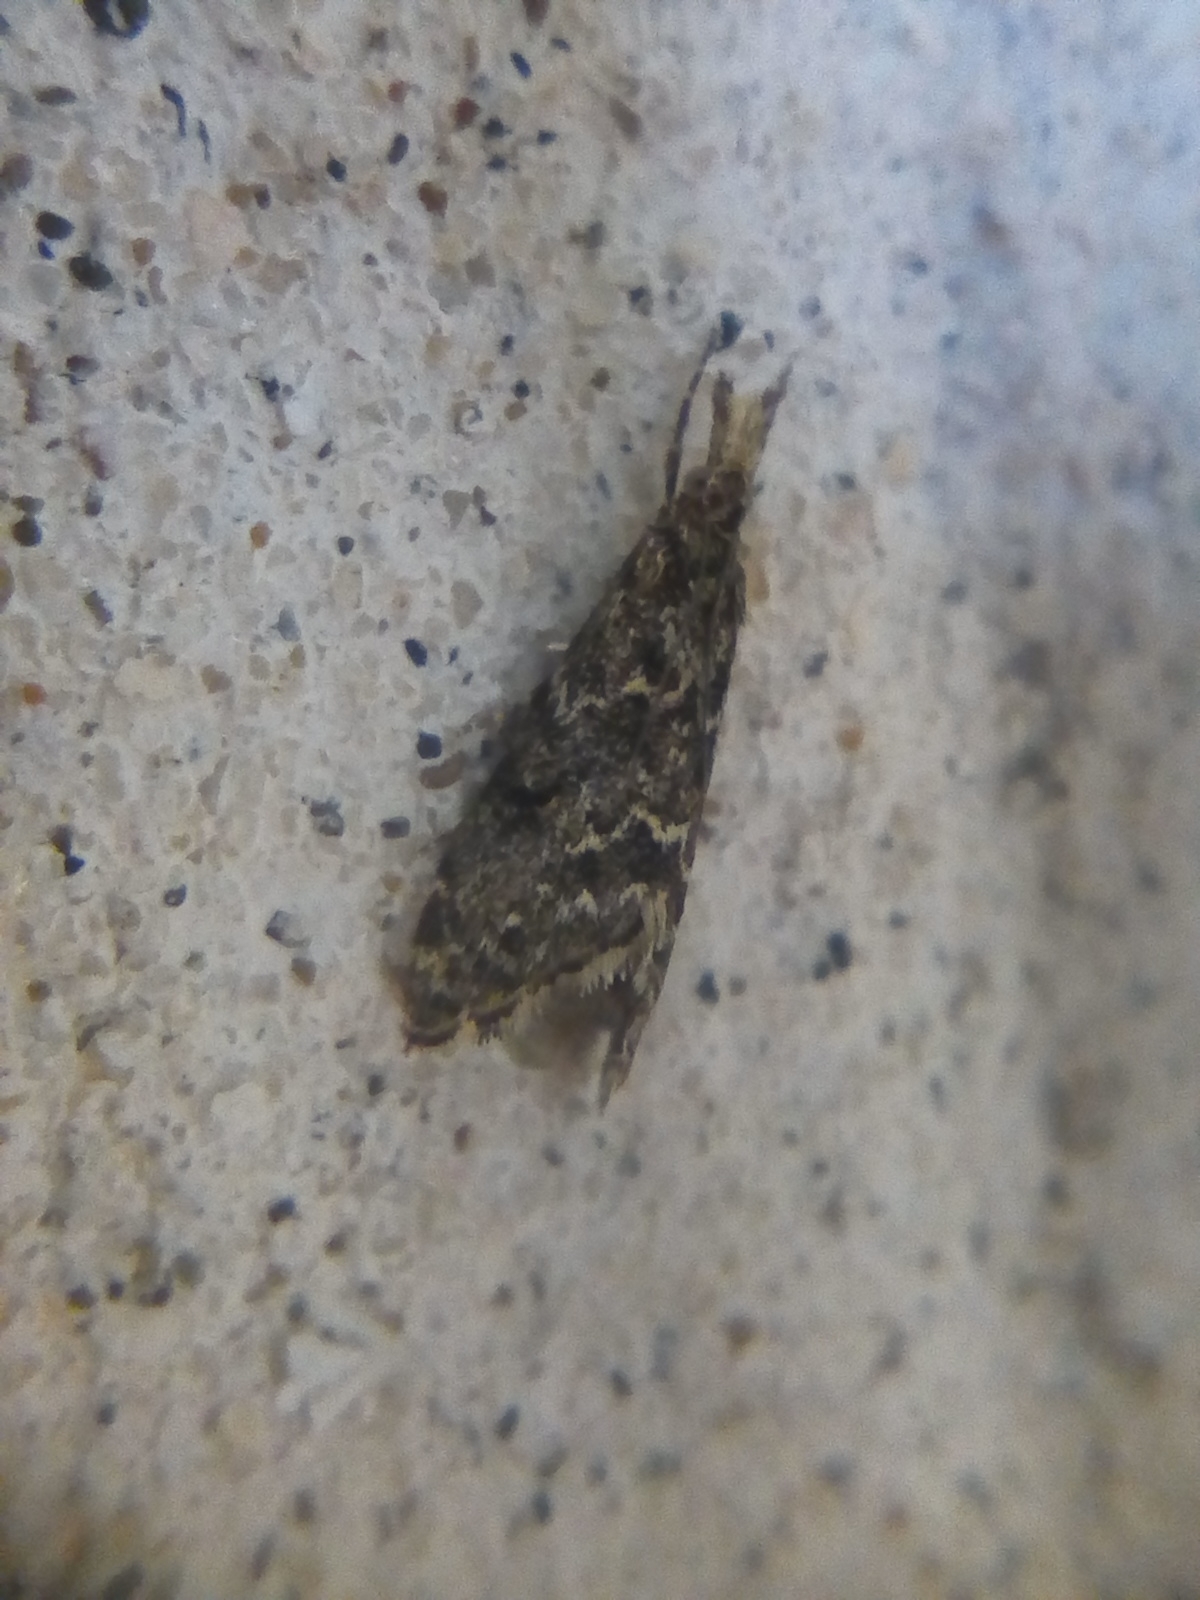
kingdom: Animalia
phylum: Arthropoda
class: Insecta
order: Lepidoptera
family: Crambidae
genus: Glaucocharis
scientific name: Glaucocharis elaina
